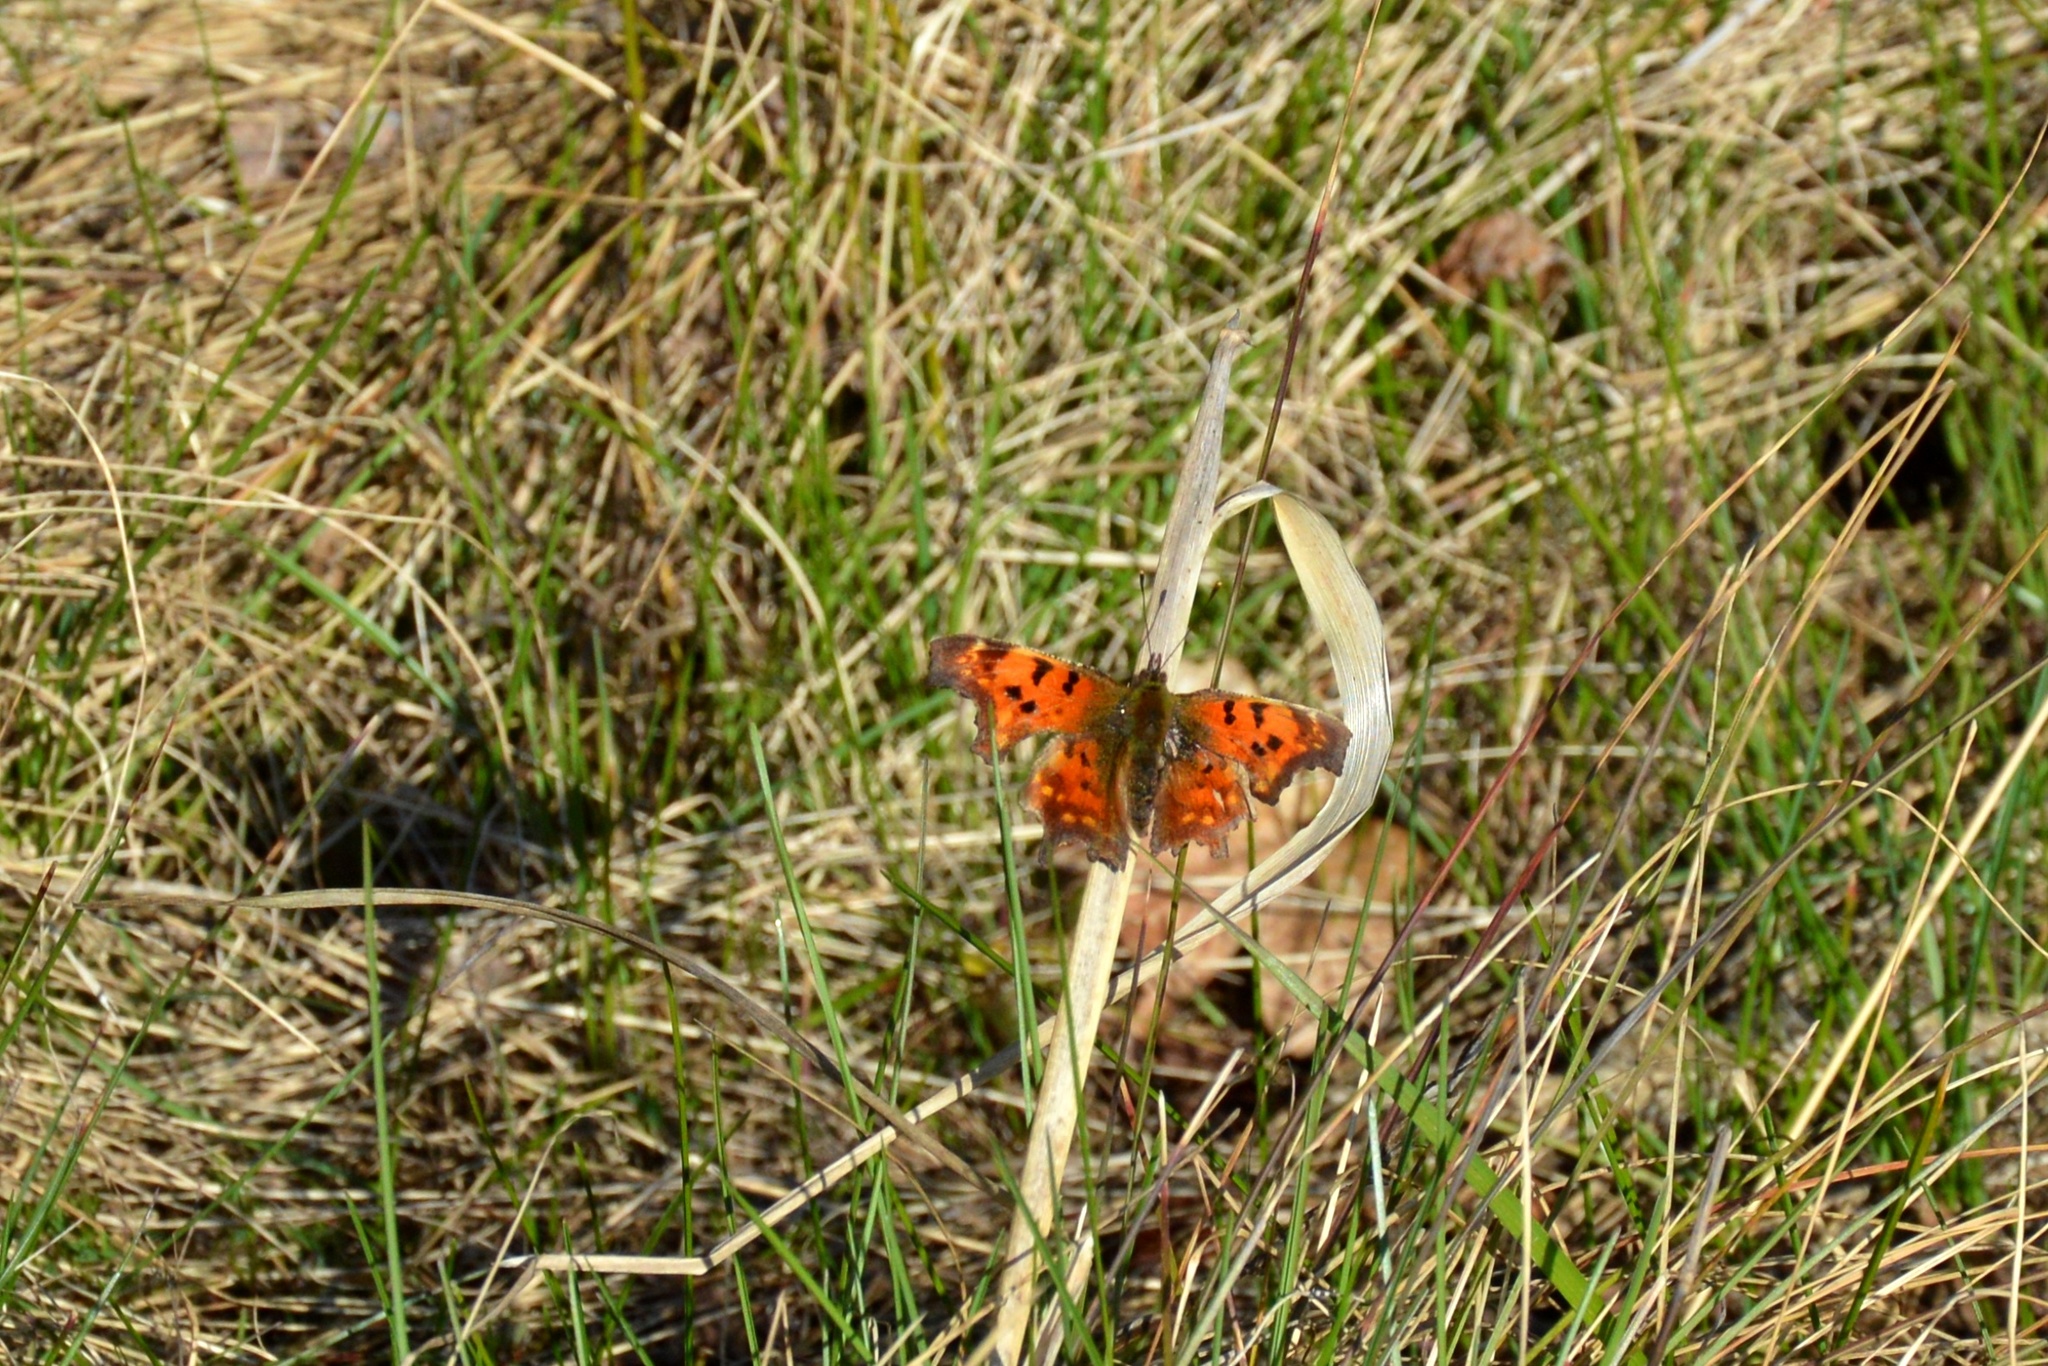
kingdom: Animalia
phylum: Arthropoda
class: Insecta
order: Lepidoptera
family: Nymphalidae
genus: Polygonia
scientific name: Polygonia c-album
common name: Comma
